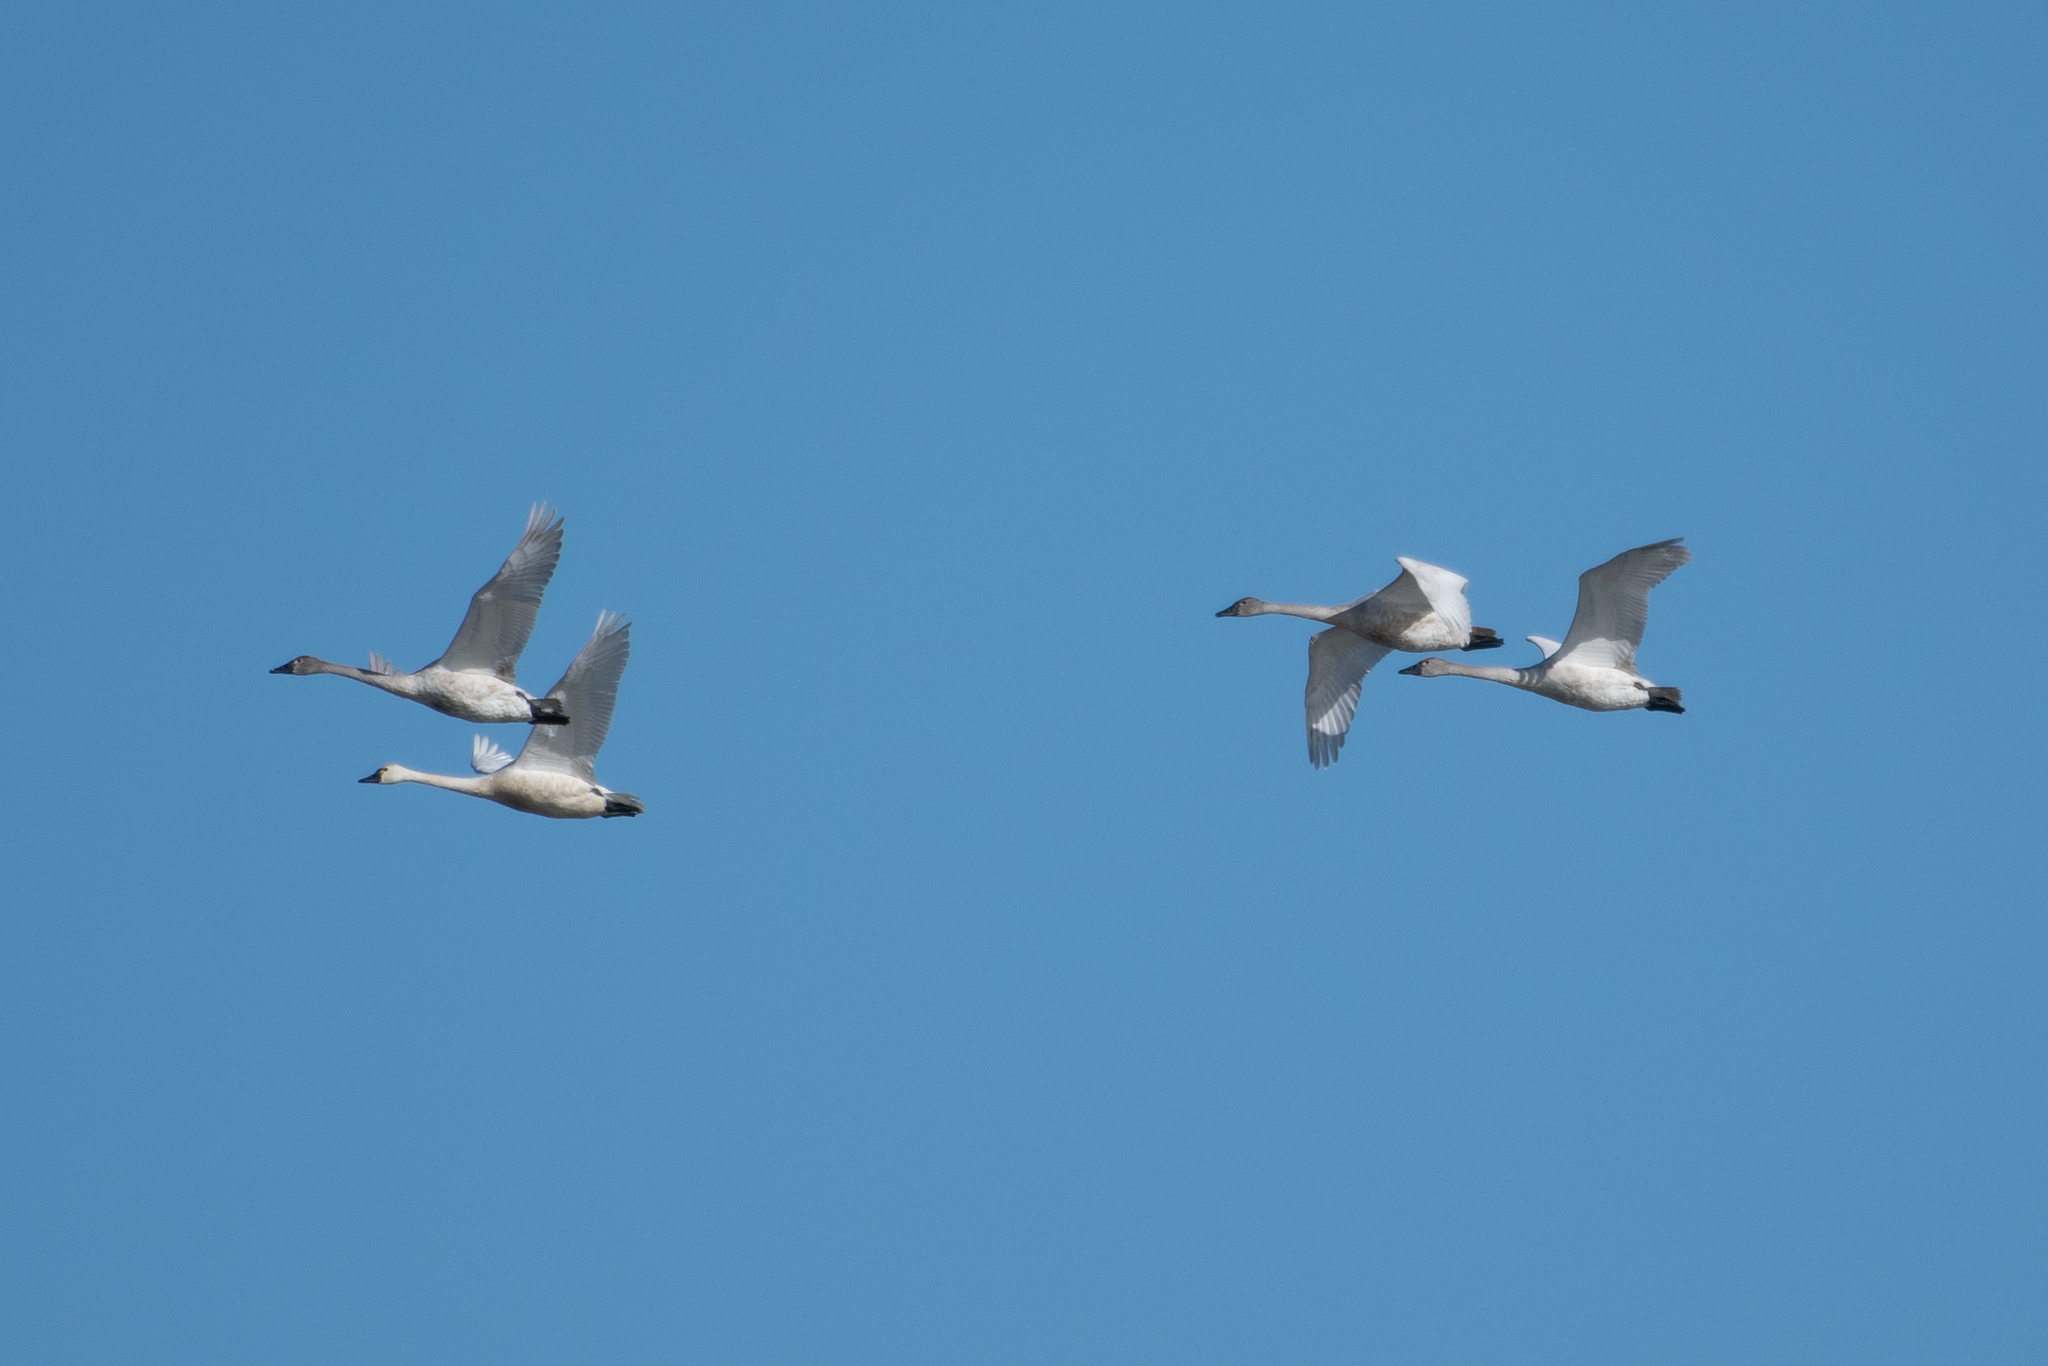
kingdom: Animalia
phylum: Chordata
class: Aves
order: Anseriformes
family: Anatidae
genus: Cygnus
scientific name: Cygnus columbianus
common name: Tundra swan
